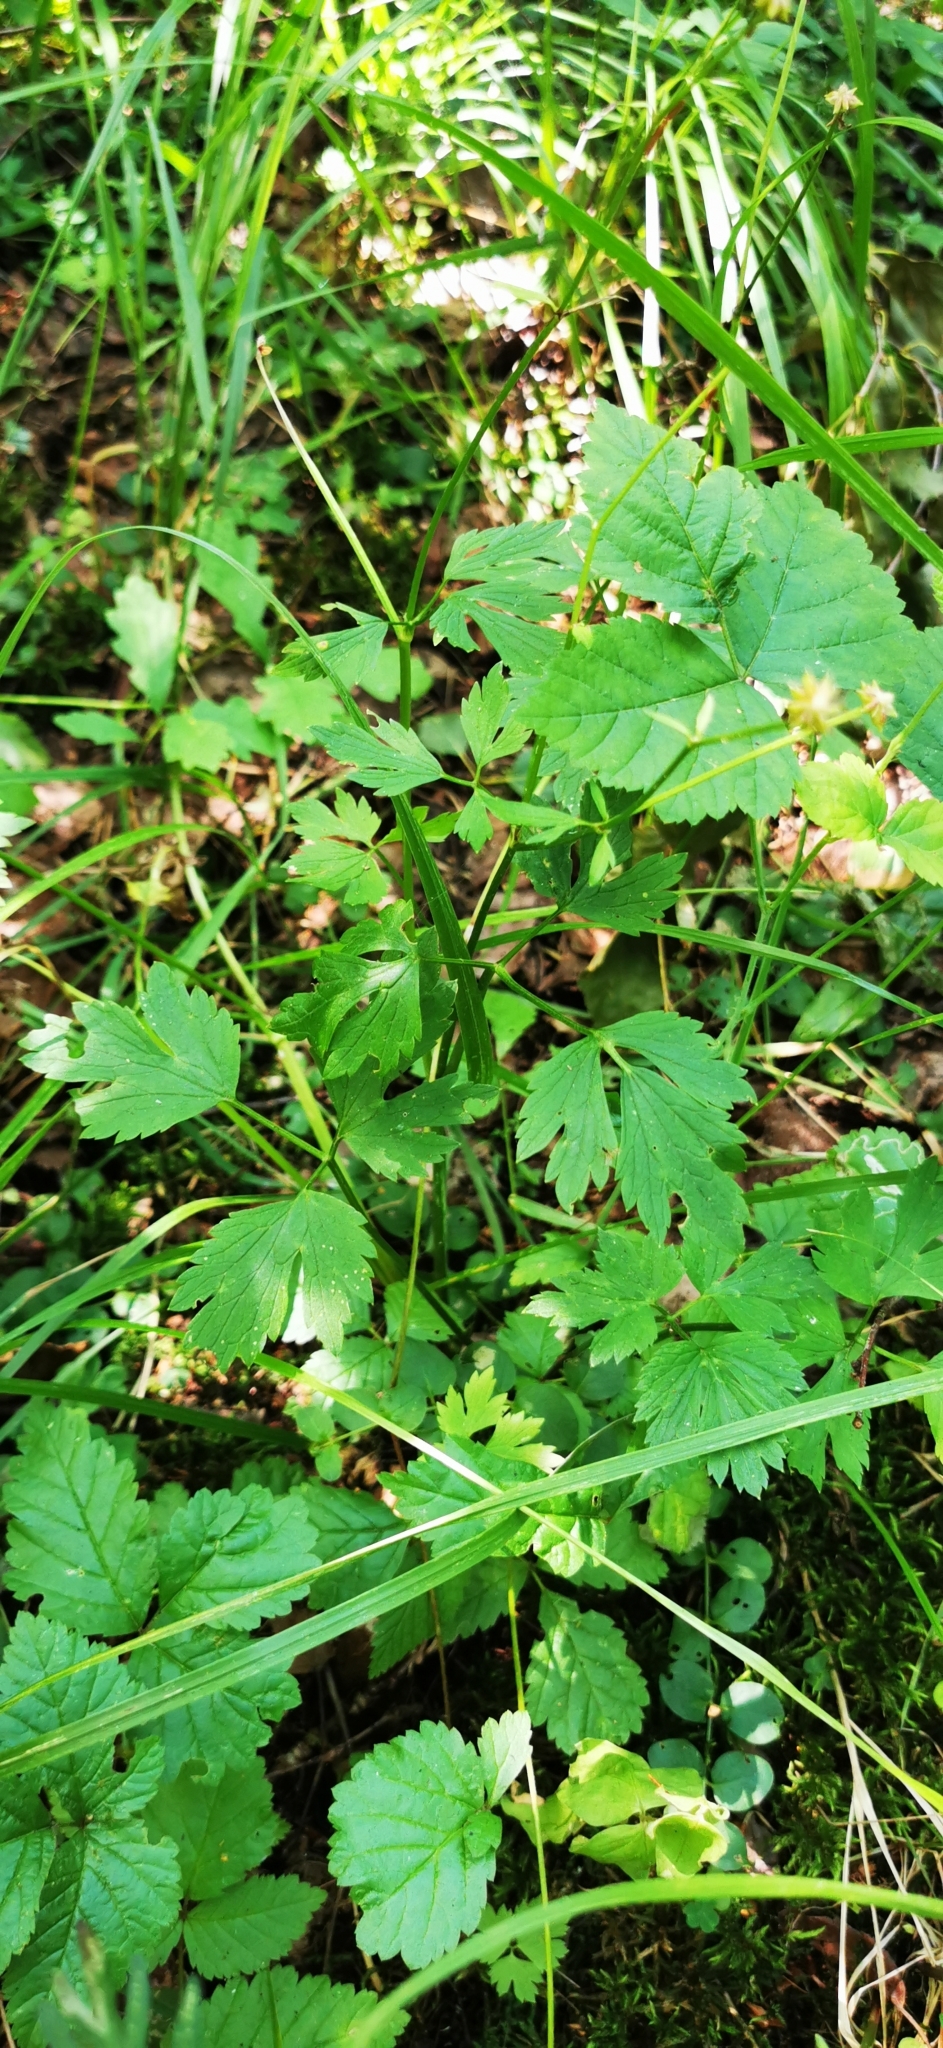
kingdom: Plantae
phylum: Tracheophyta
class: Magnoliopsida
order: Ranunculales
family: Ranunculaceae
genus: Ranunculus
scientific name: Ranunculus repens
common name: Creeping buttercup
